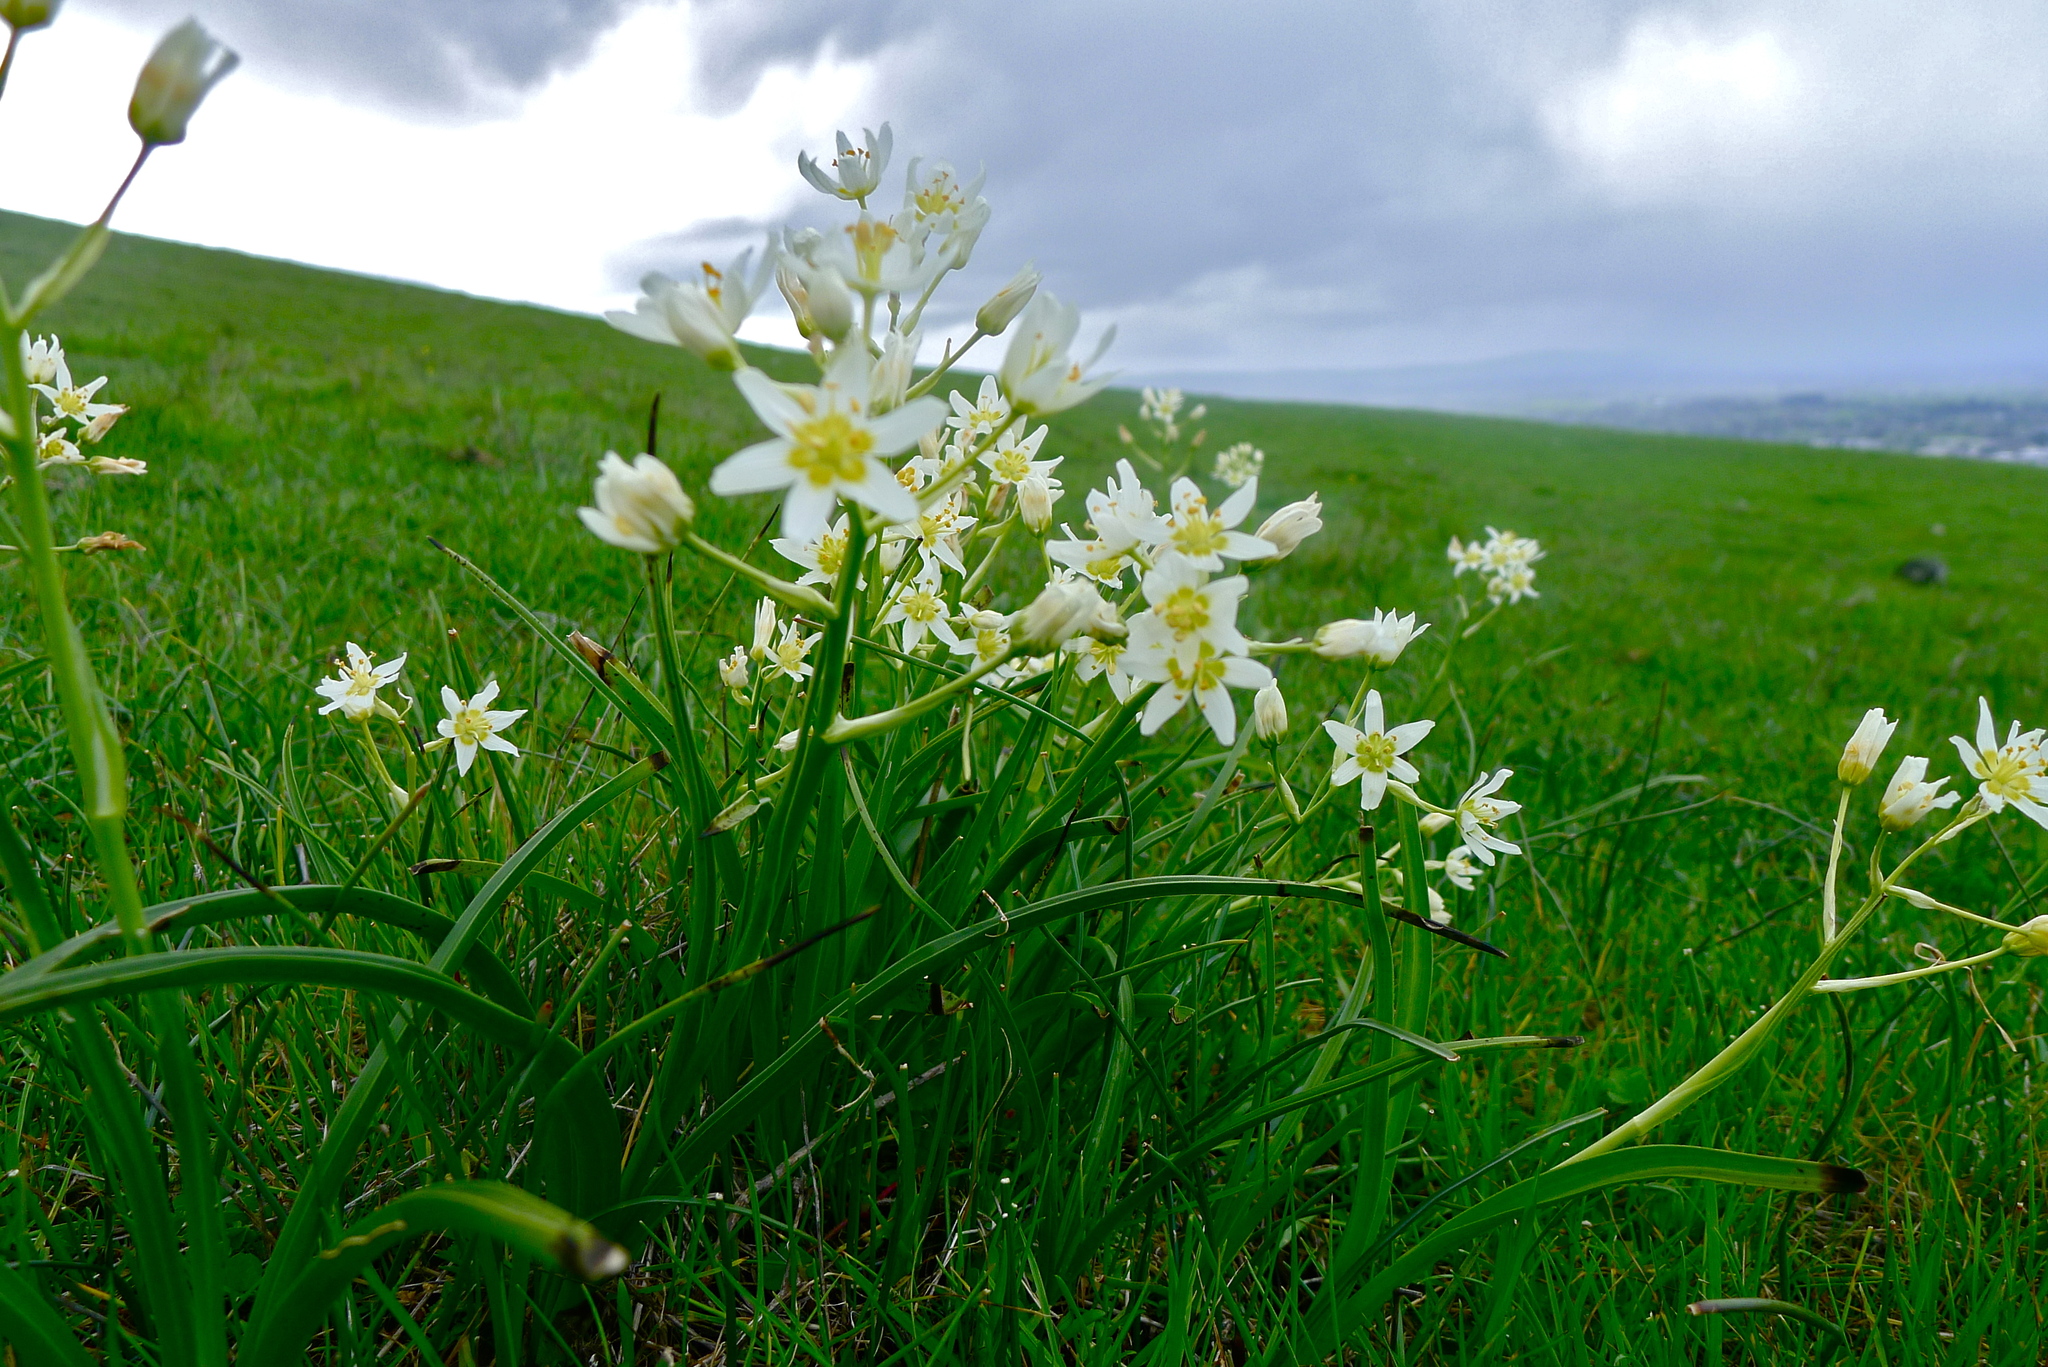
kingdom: Plantae
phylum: Tracheophyta
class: Liliopsida
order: Liliales
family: Melanthiaceae
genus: Toxicoscordion
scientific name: Toxicoscordion fremontii
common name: Fremont's death camas
